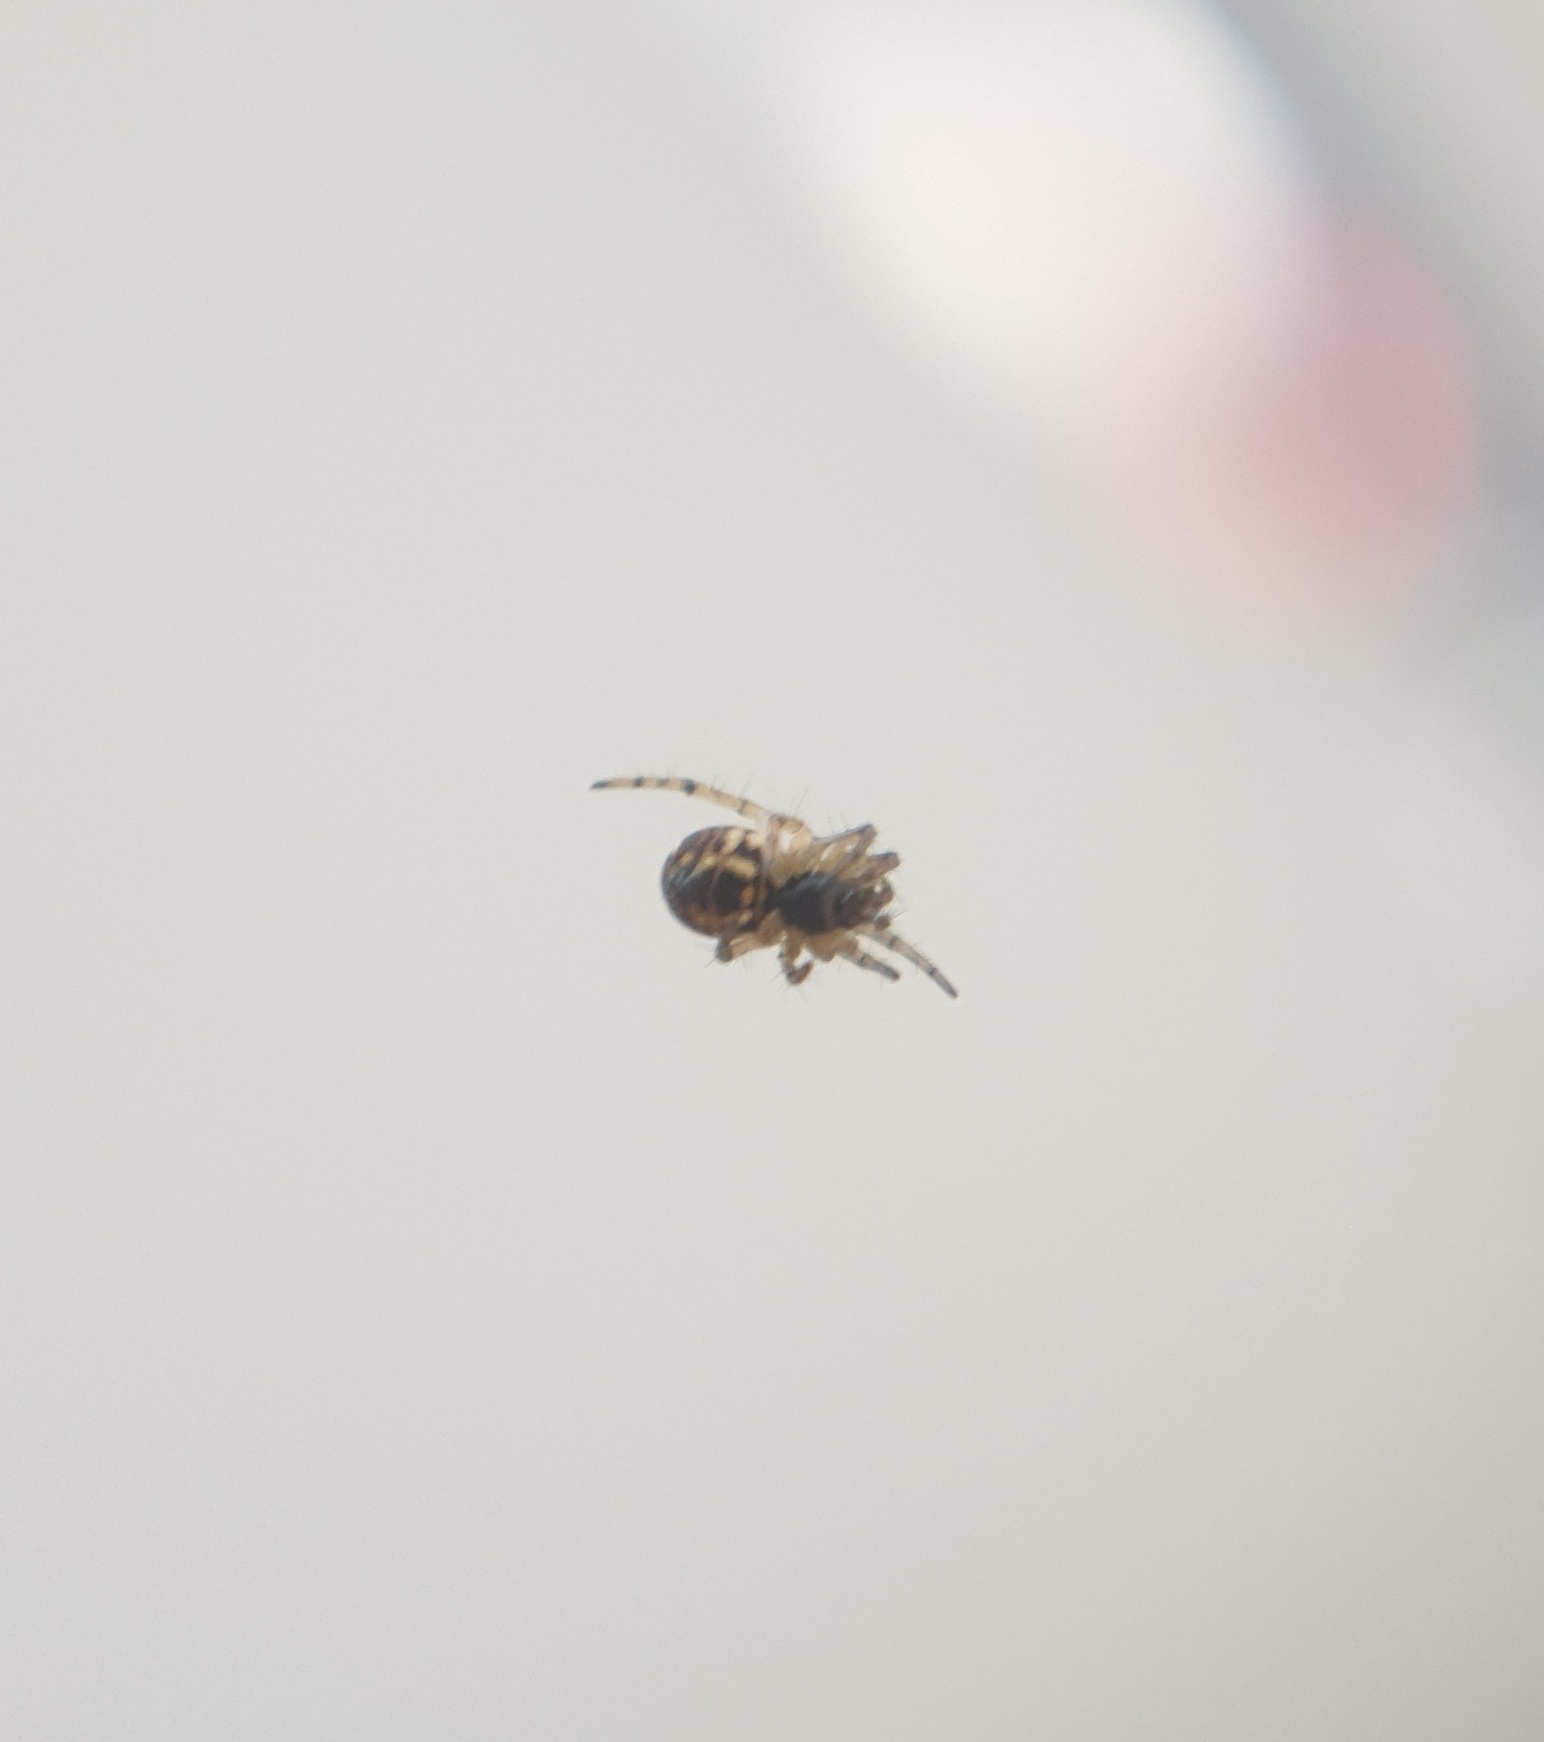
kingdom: Animalia
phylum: Arthropoda
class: Arachnida
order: Araneae
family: Araneidae
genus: Mangora
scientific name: Mangora acalypha
